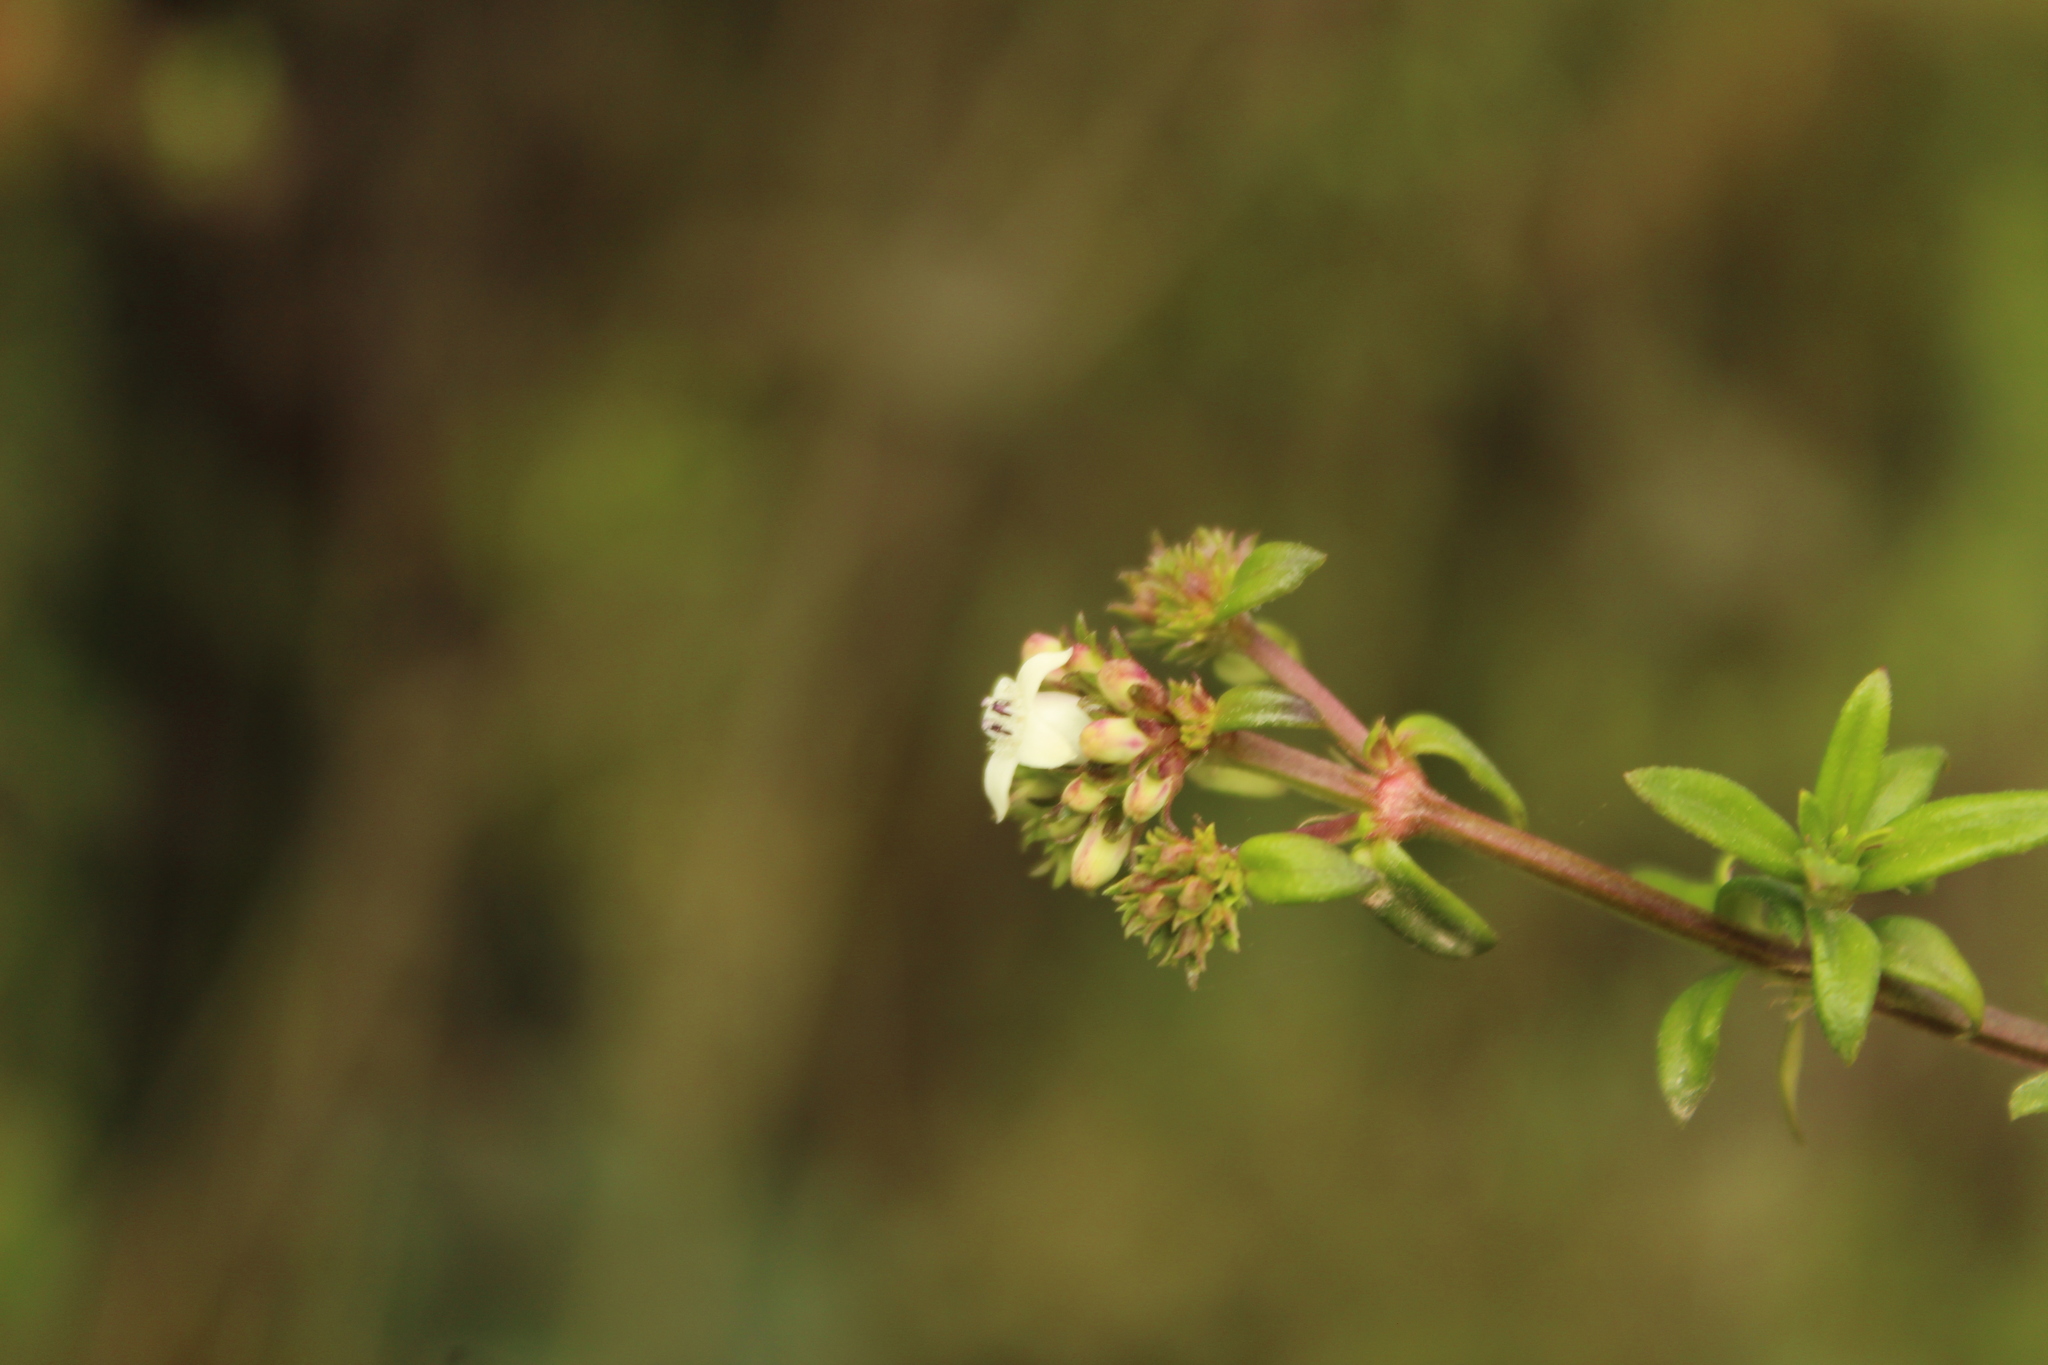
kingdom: Plantae
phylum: Tracheophyta
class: Magnoliopsida
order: Gentianales
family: Rubiaceae
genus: Galianthe
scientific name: Galianthe bogotensis
